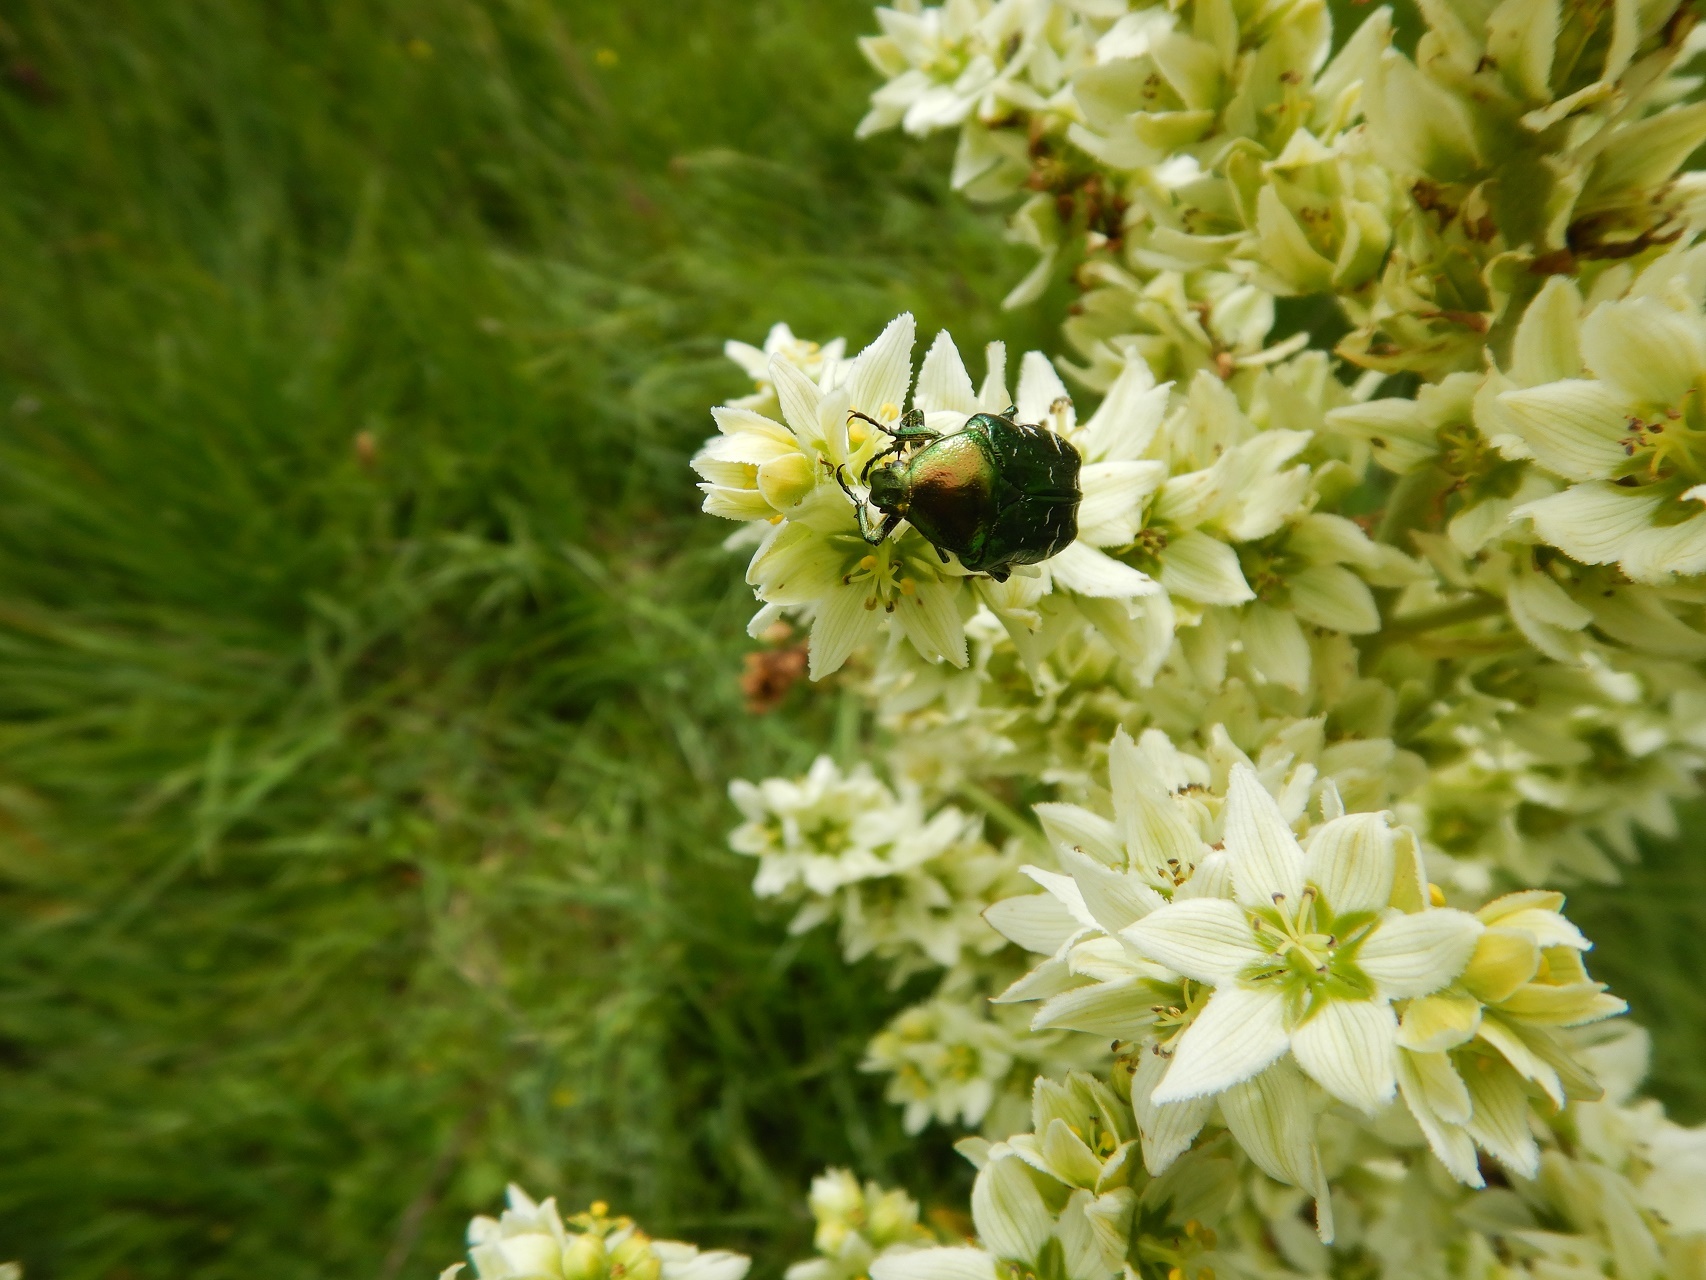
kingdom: Animalia
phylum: Arthropoda
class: Insecta
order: Coleoptera
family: Scarabaeidae
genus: Cetonia
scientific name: Cetonia aurata
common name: Rose chafer
